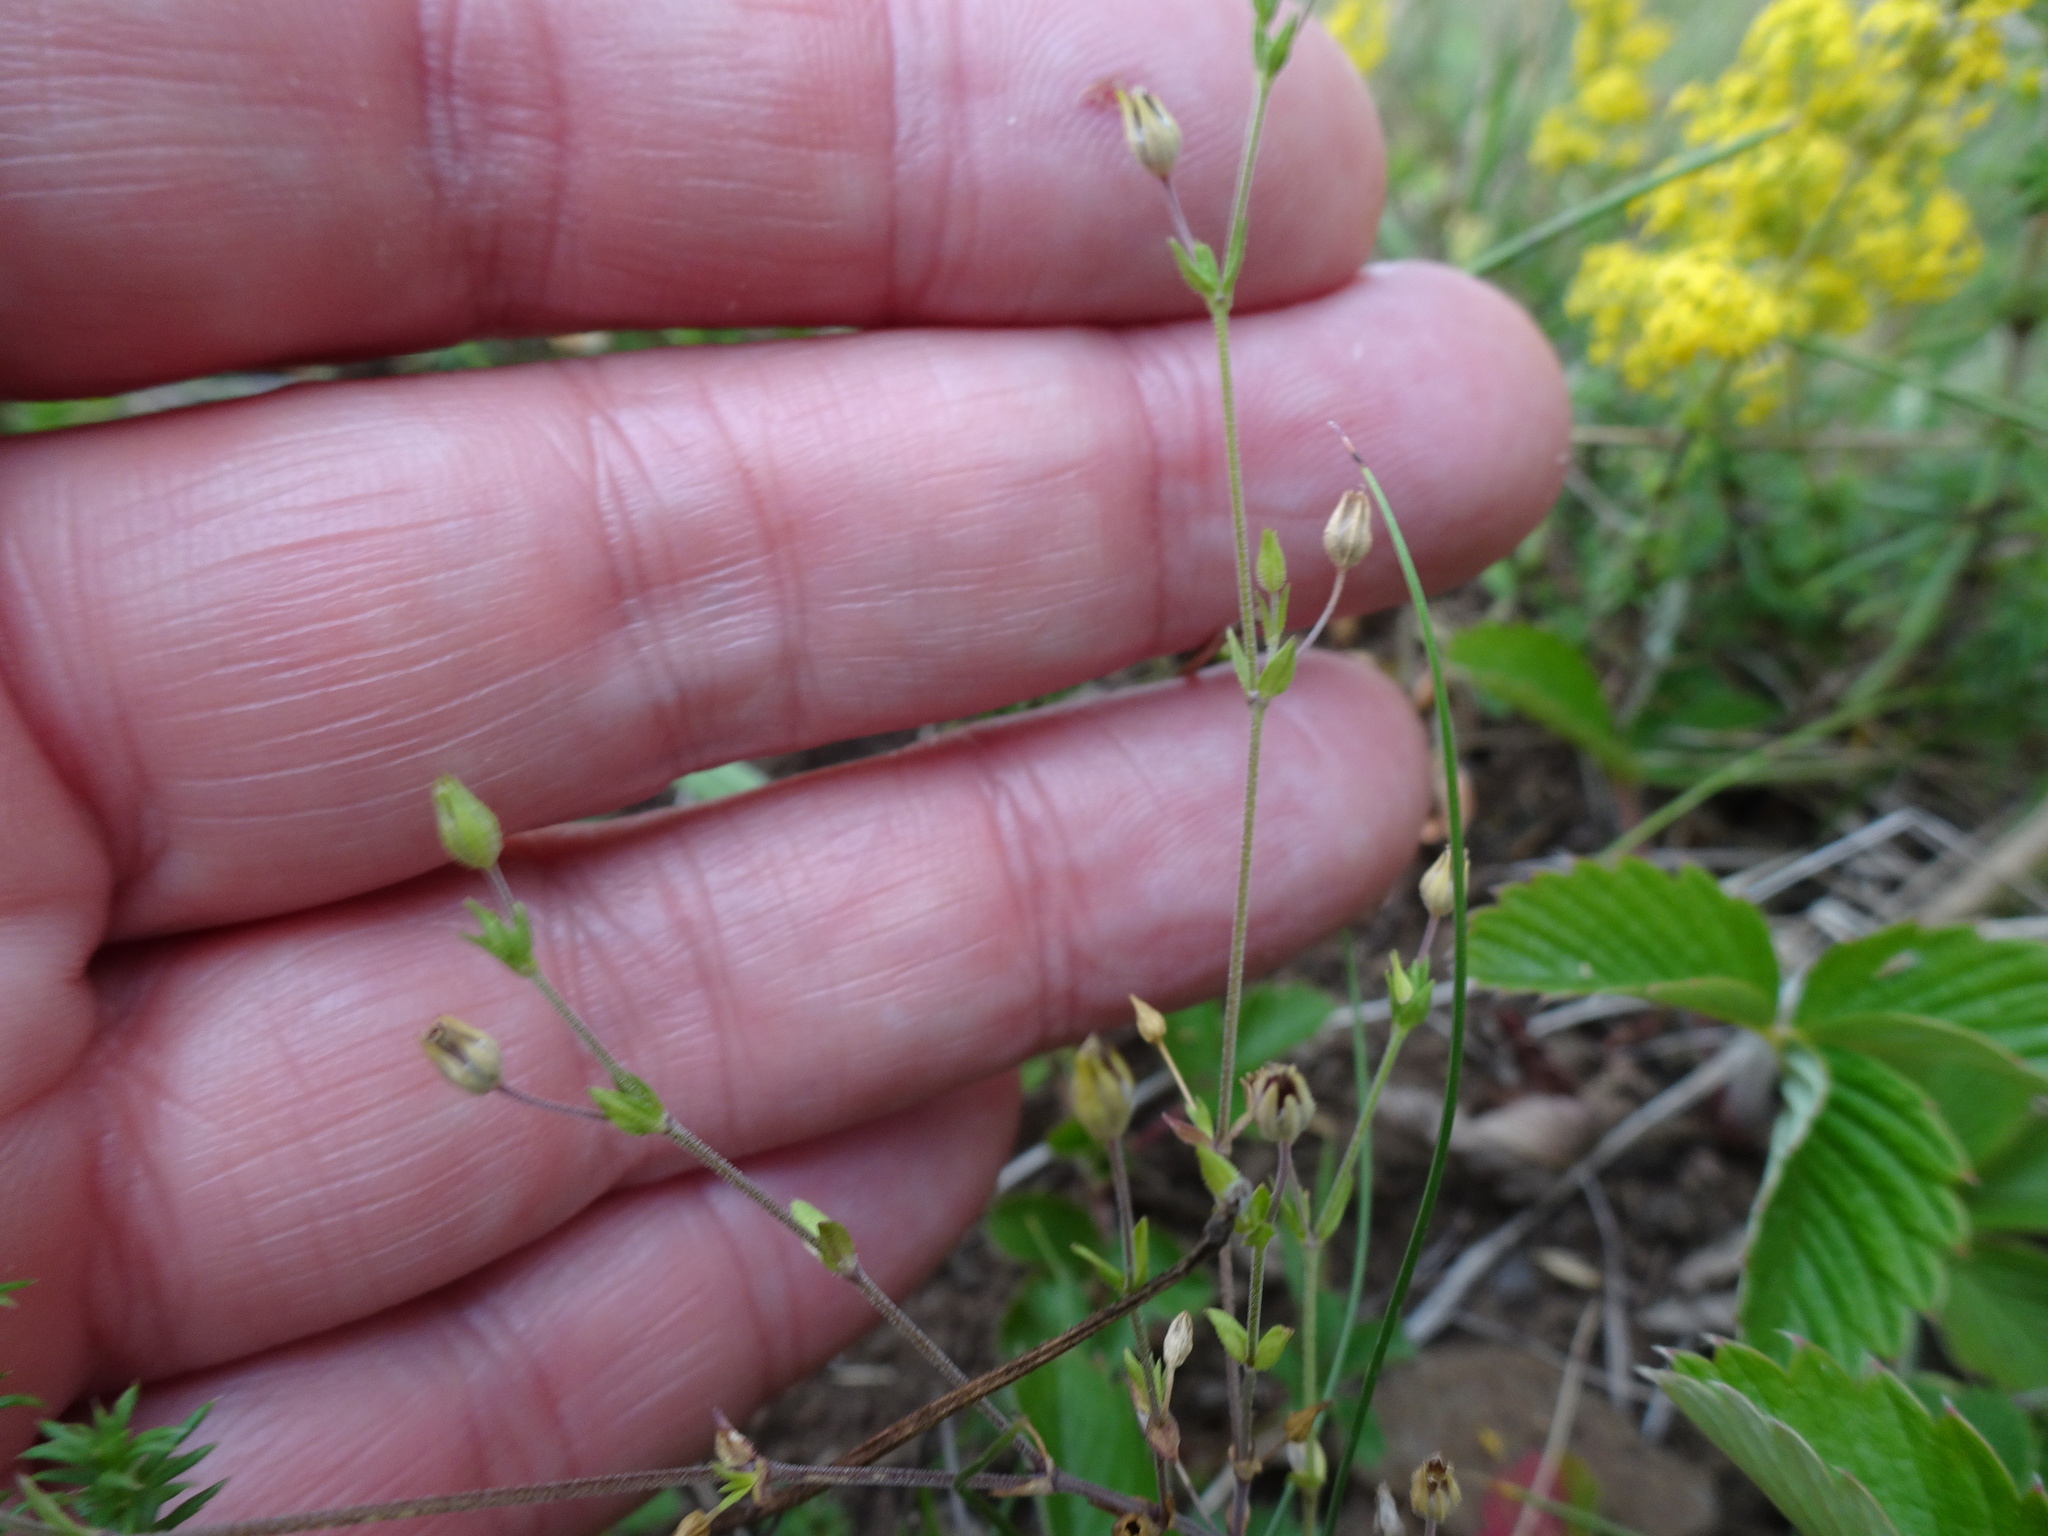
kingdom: Plantae
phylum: Tracheophyta
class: Magnoliopsida
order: Caryophyllales
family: Caryophyllaceae
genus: Arenaria
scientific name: Arenaria serpyllifolia
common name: Thyme-leaved sandwort
